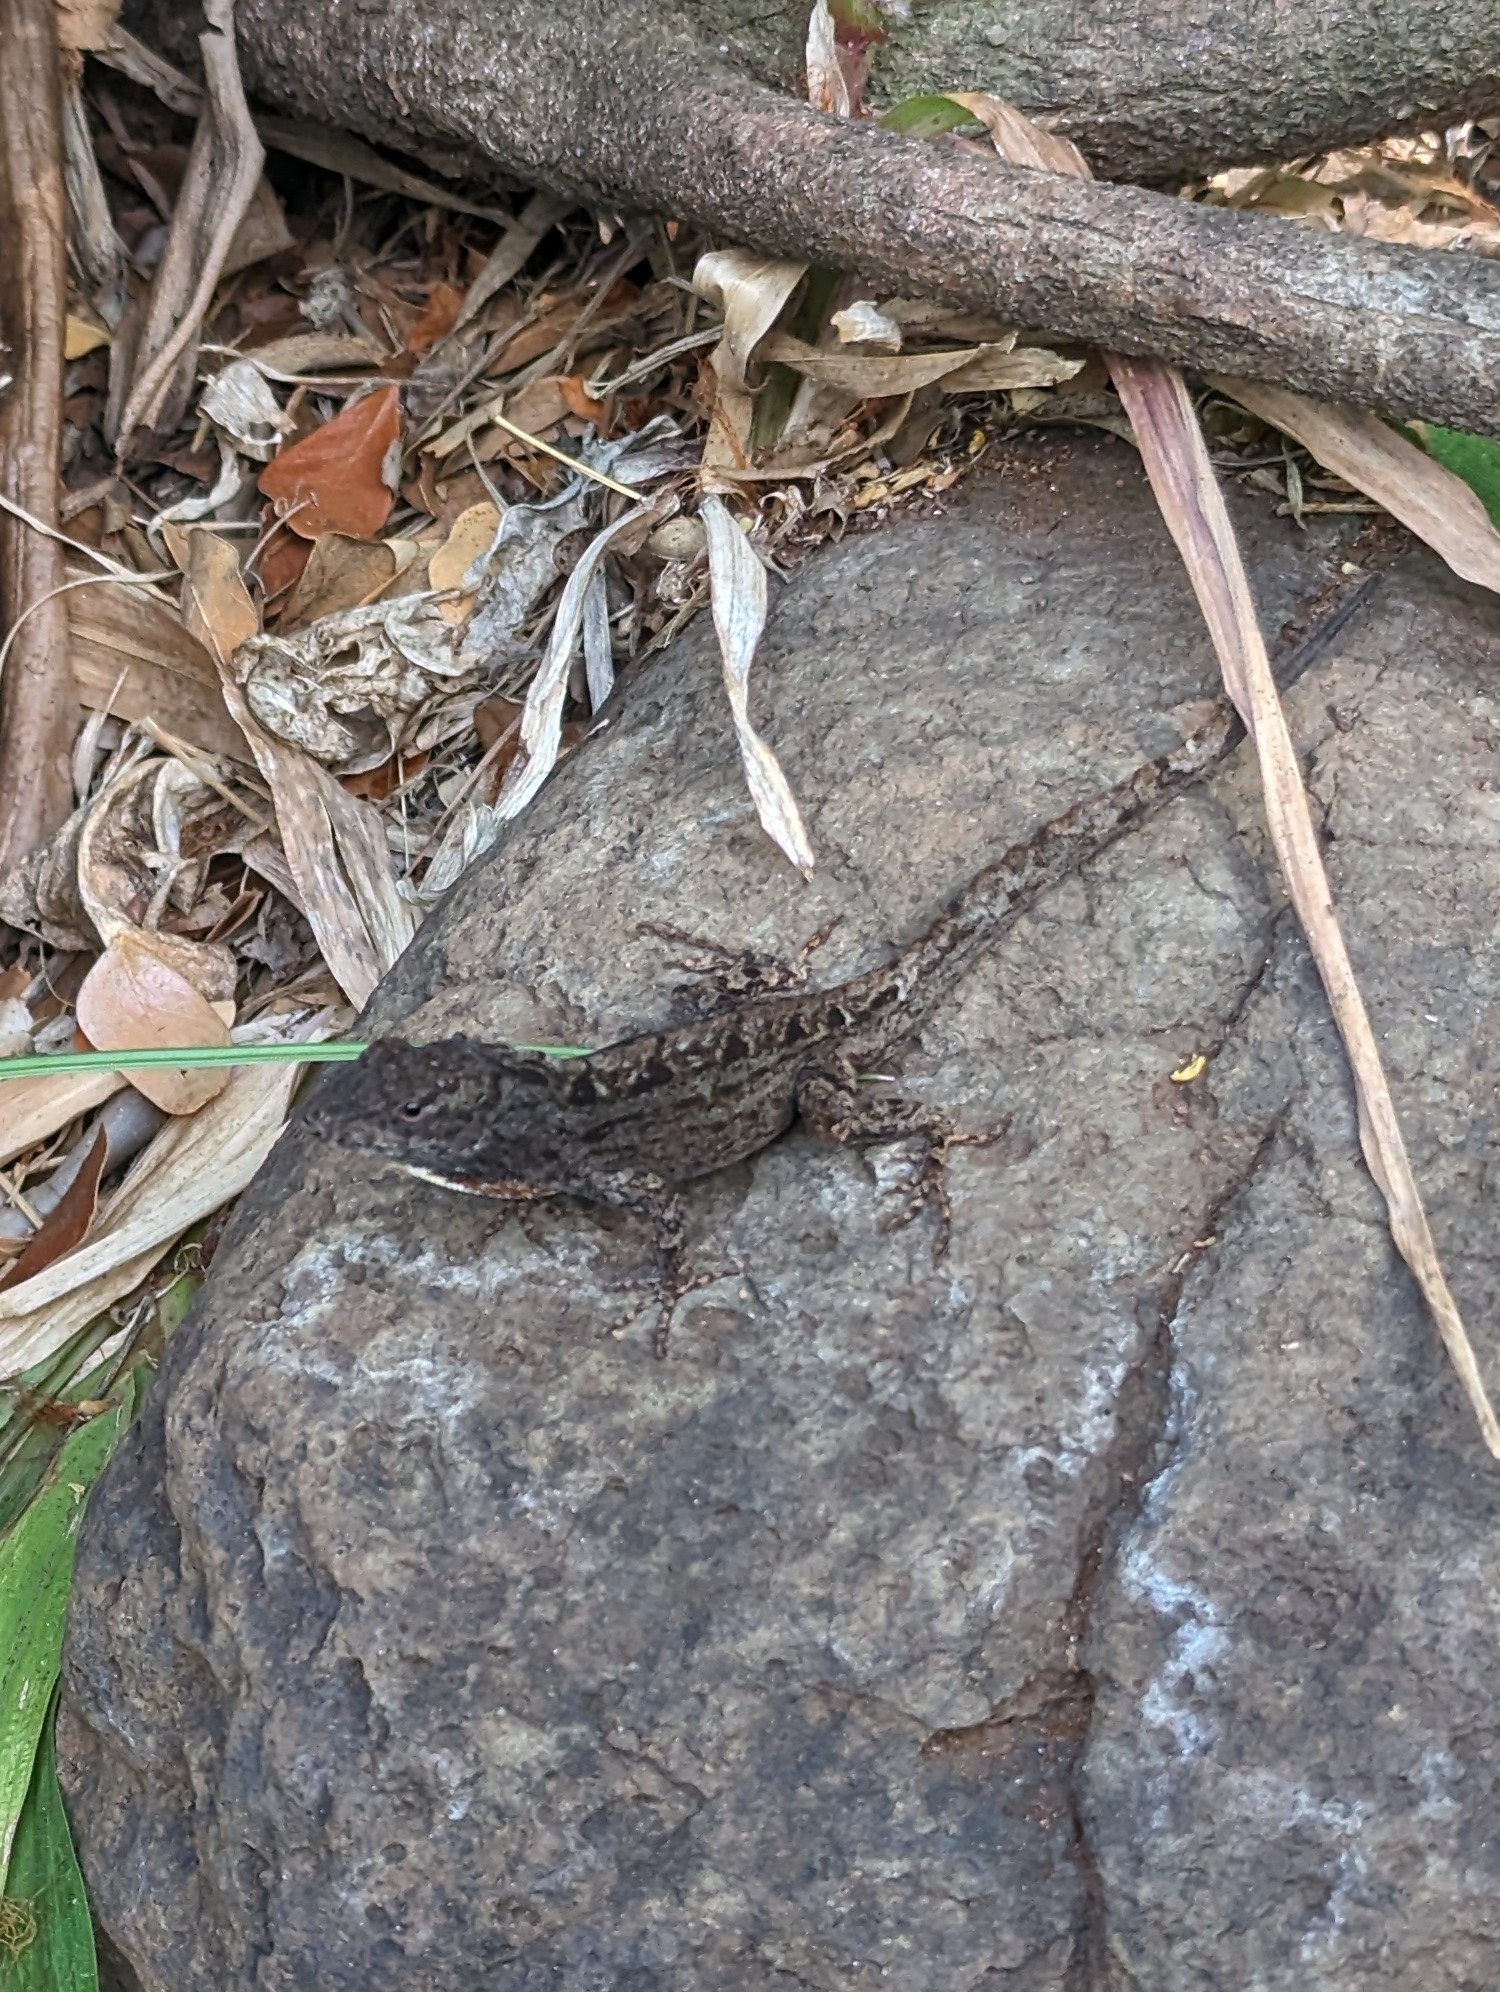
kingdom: Animalia
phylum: Chordata
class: Squamata
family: Dactyloidae
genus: Anolis
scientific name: Anolis sagrei
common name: Brown anole
